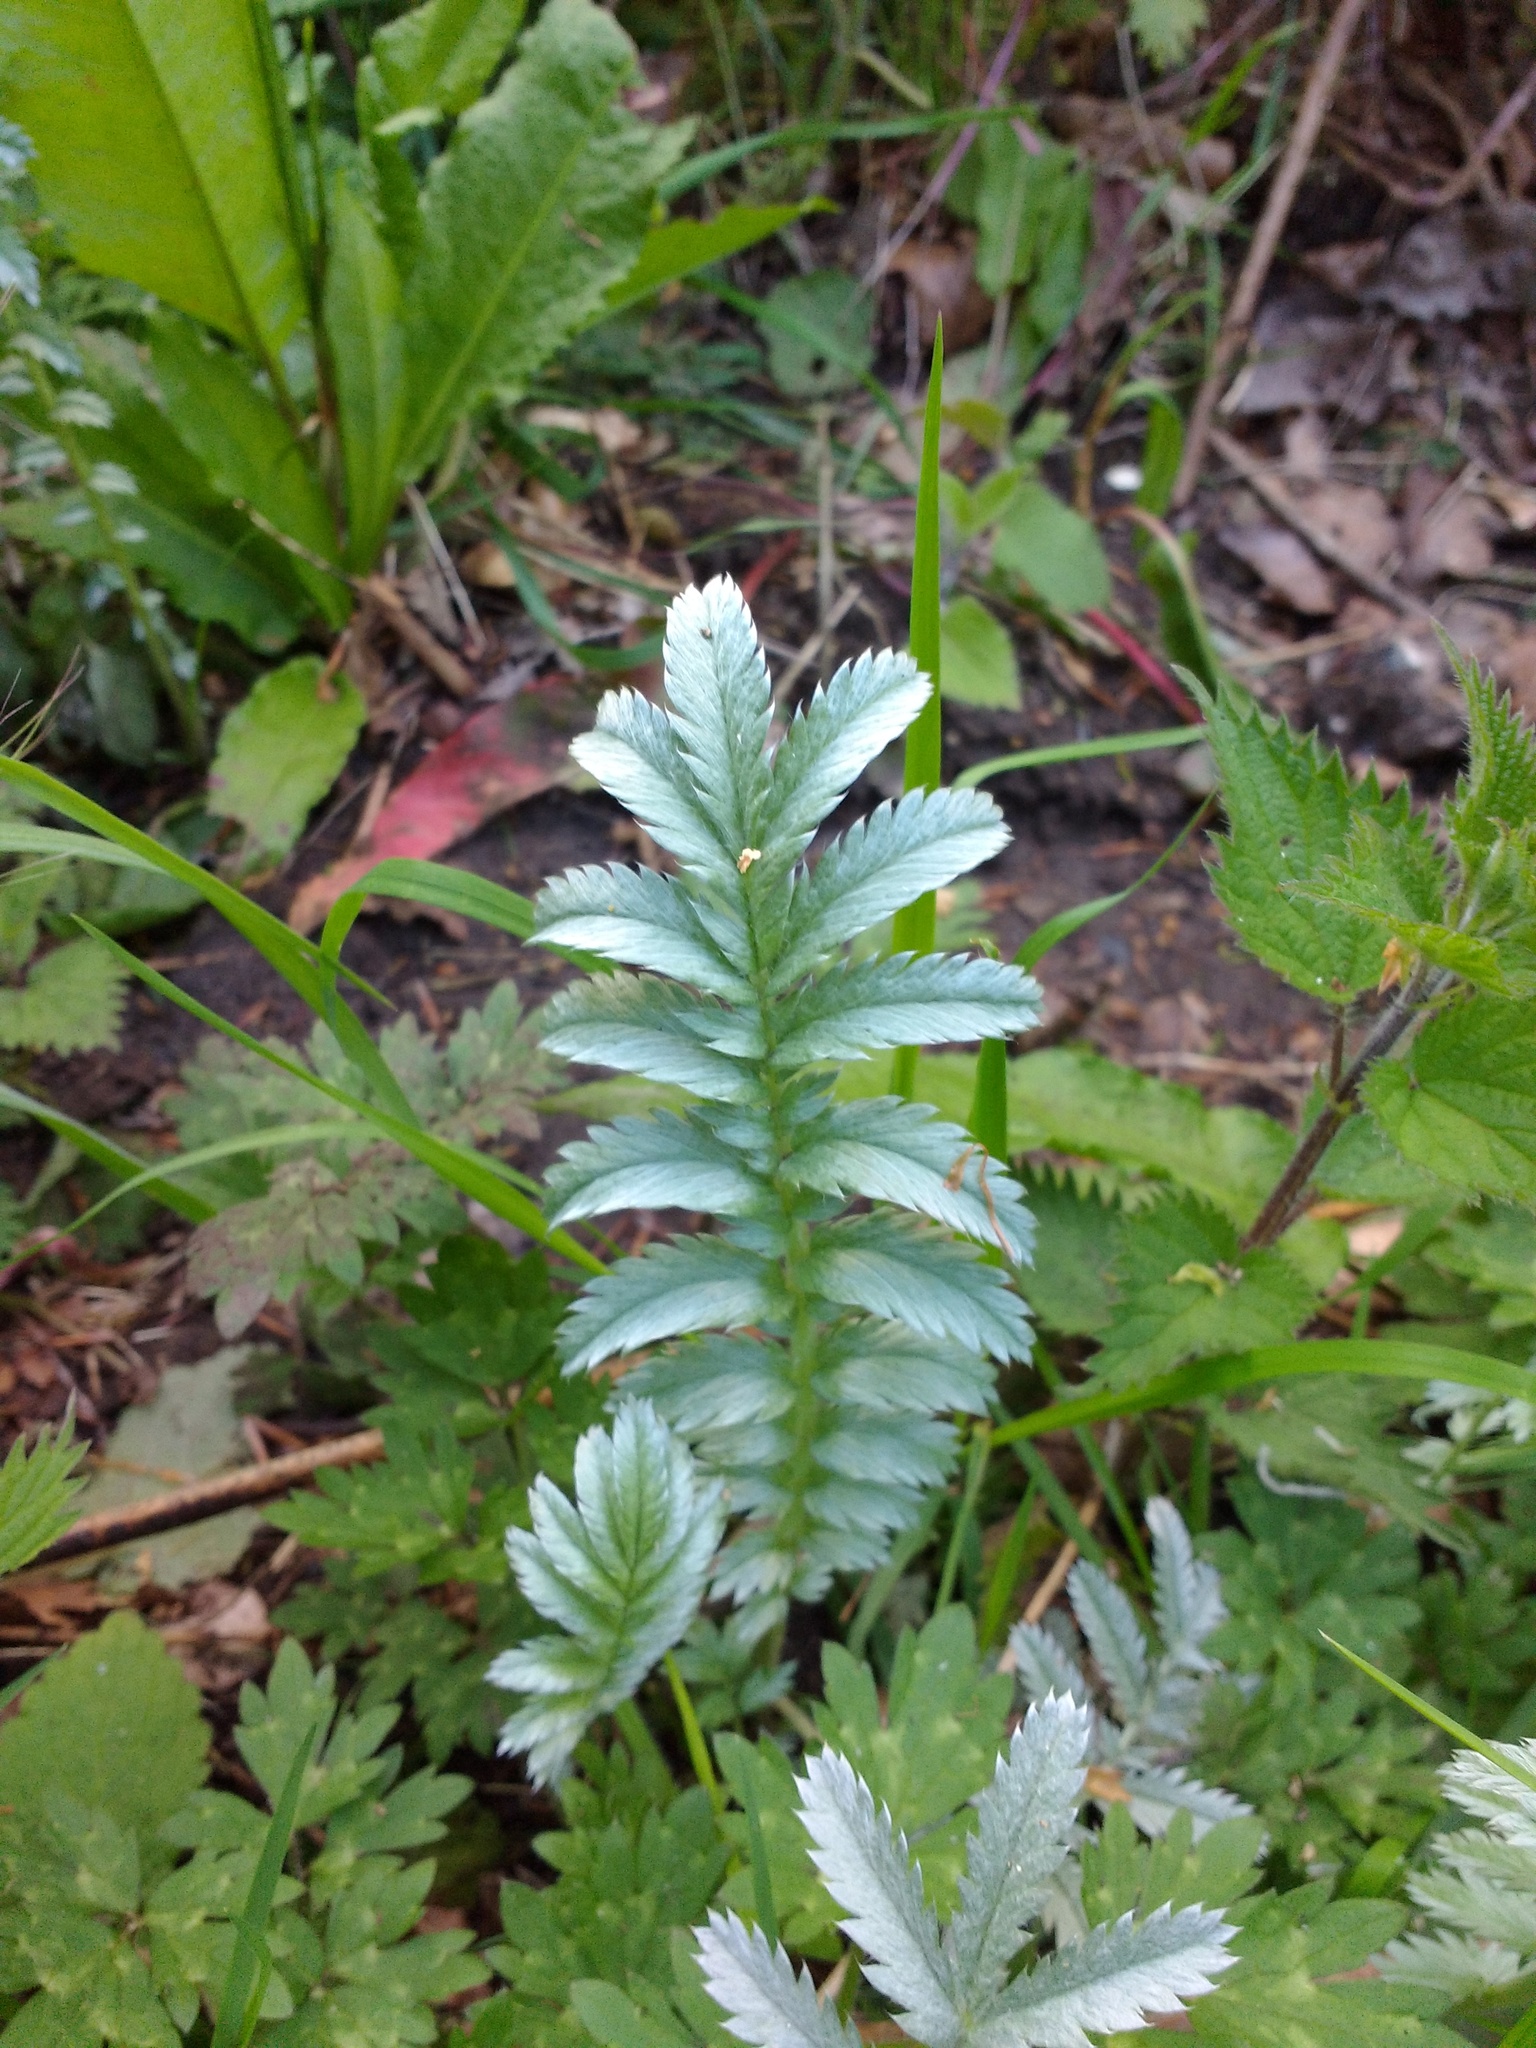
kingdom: Plantae
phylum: Tracheophyta
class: Magnoliopsida
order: Rosales
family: Rosaceae
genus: Argentina
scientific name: Argentina anserina
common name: Common silverweed
